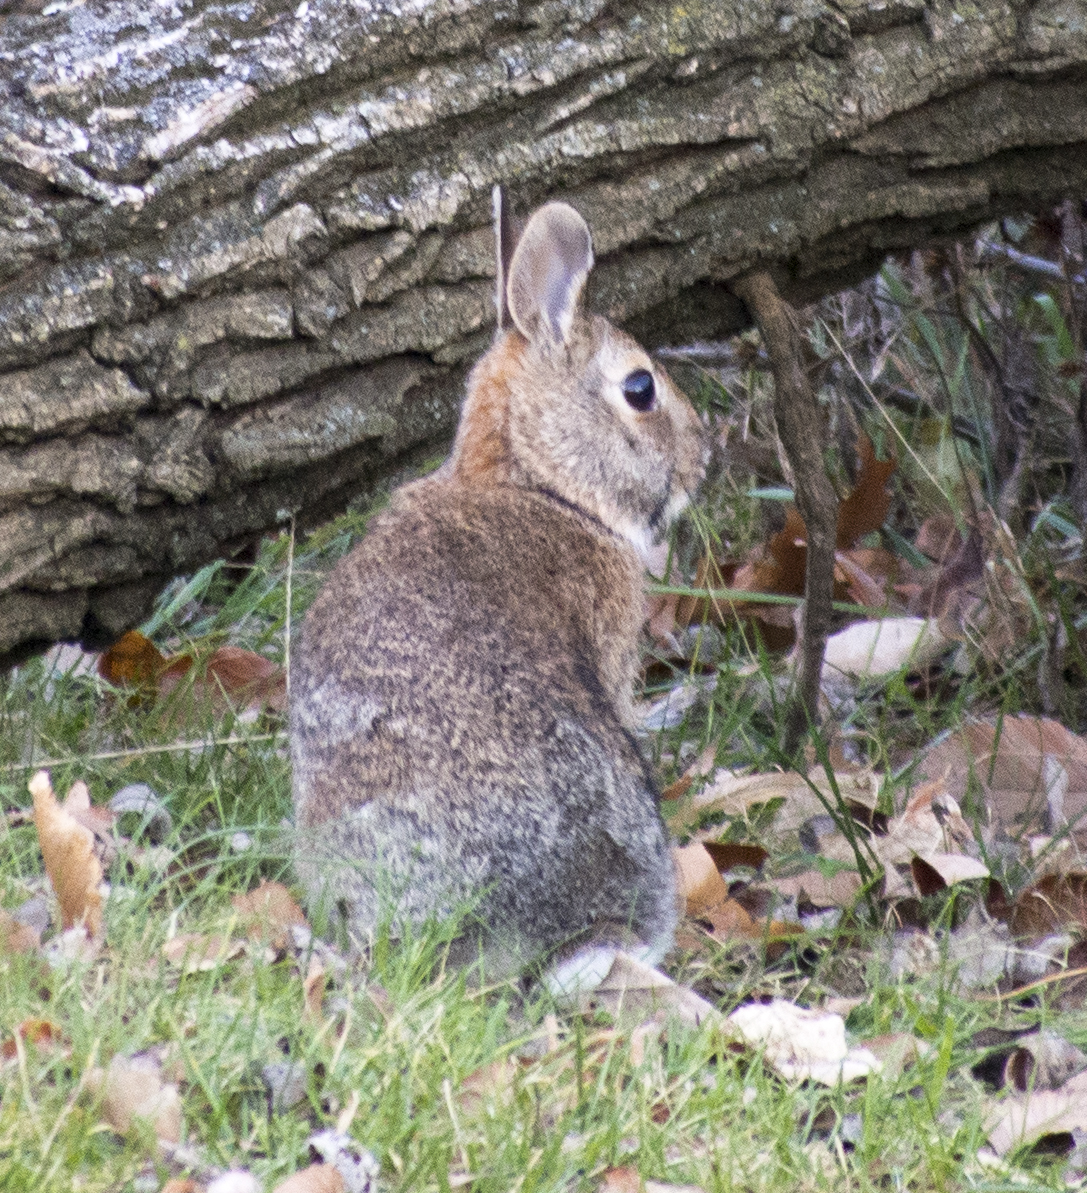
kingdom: Animalia
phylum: Chordata
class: Mammalia
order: Lagomorpha
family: Leporidae
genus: Sylvilagus
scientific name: Sylvilagus floridanus
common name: Eastern cottontail
